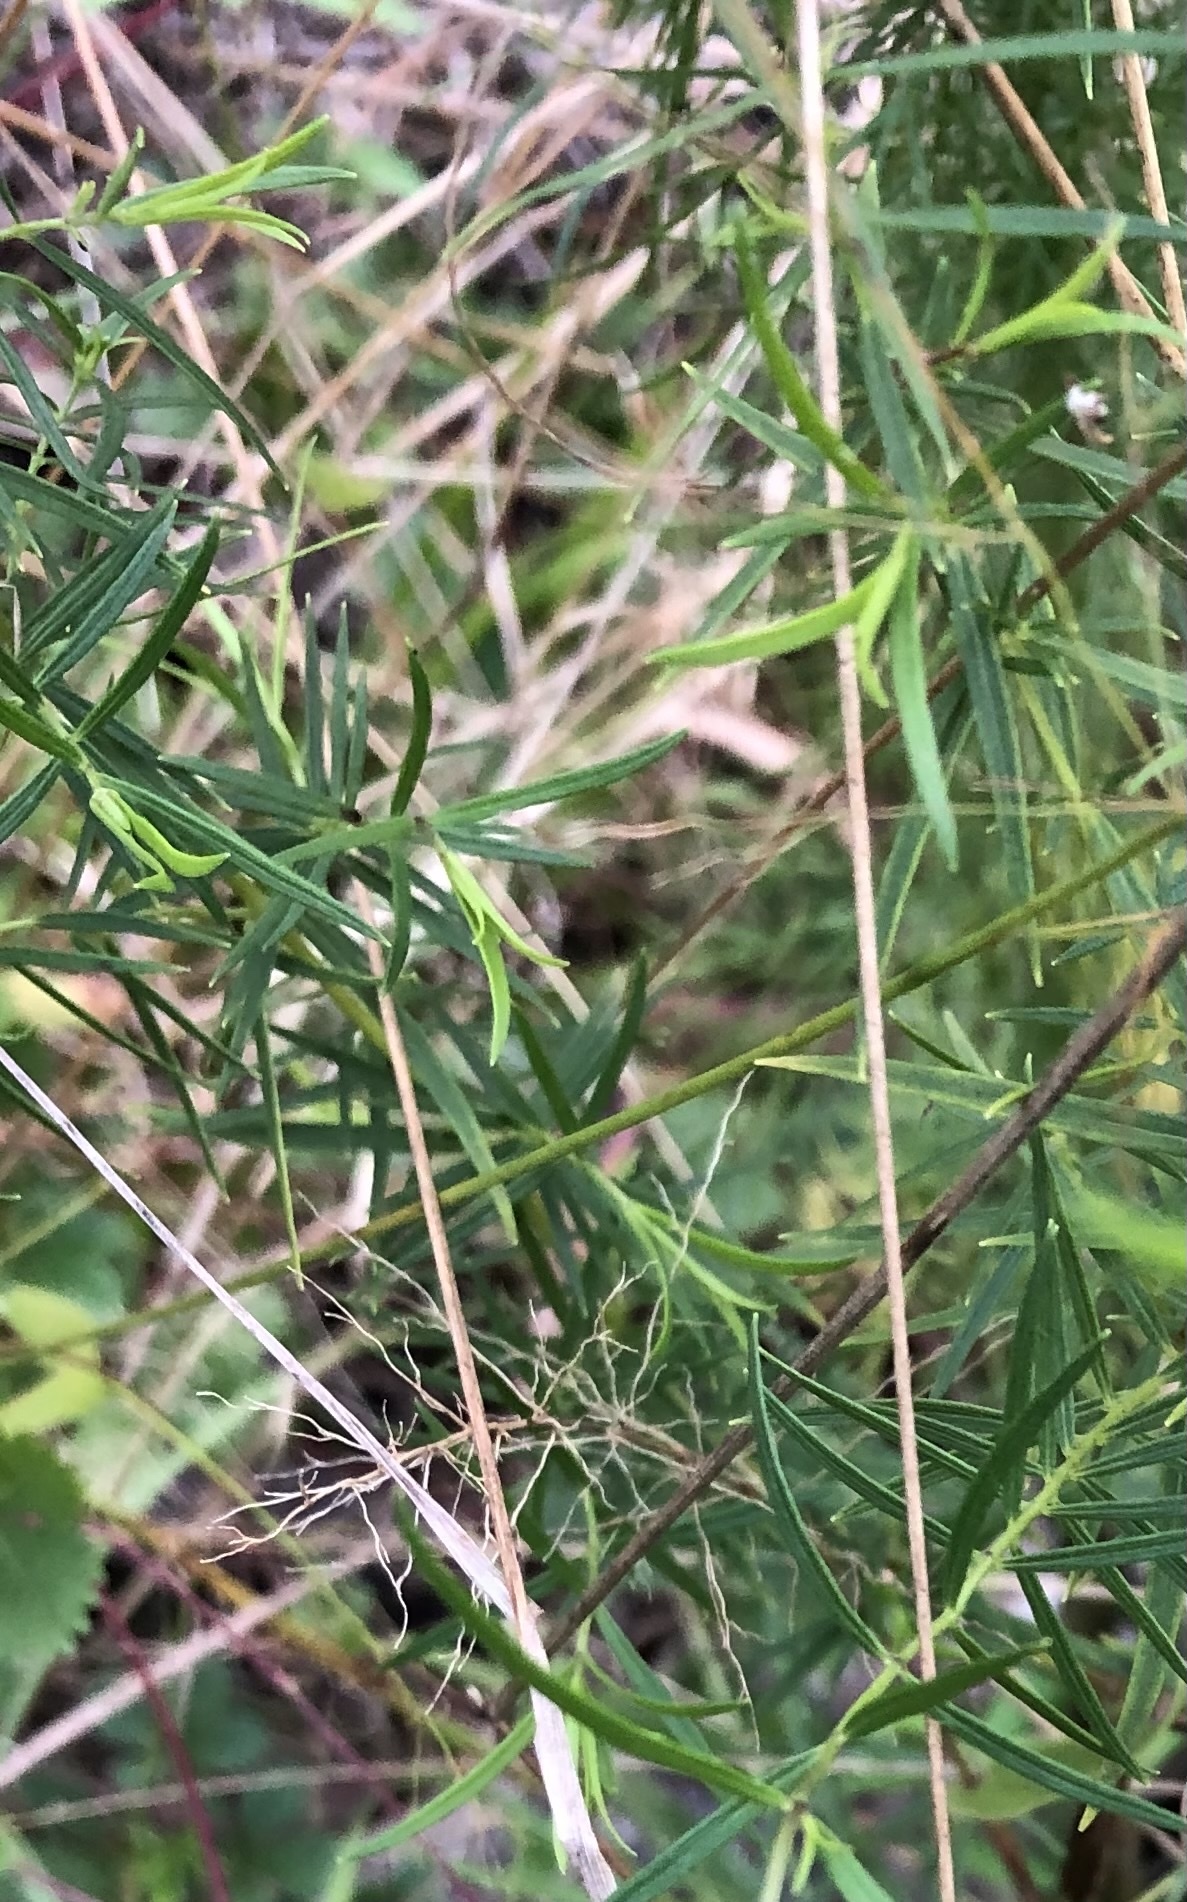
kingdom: Plantae
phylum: Tracheophyta
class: Magnoliopsida
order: Lamiales
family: Lamiaceae
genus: Pycnanthemum
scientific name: Pycnanthemum tenuifolium
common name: Narrow-leaf mountain-mint
